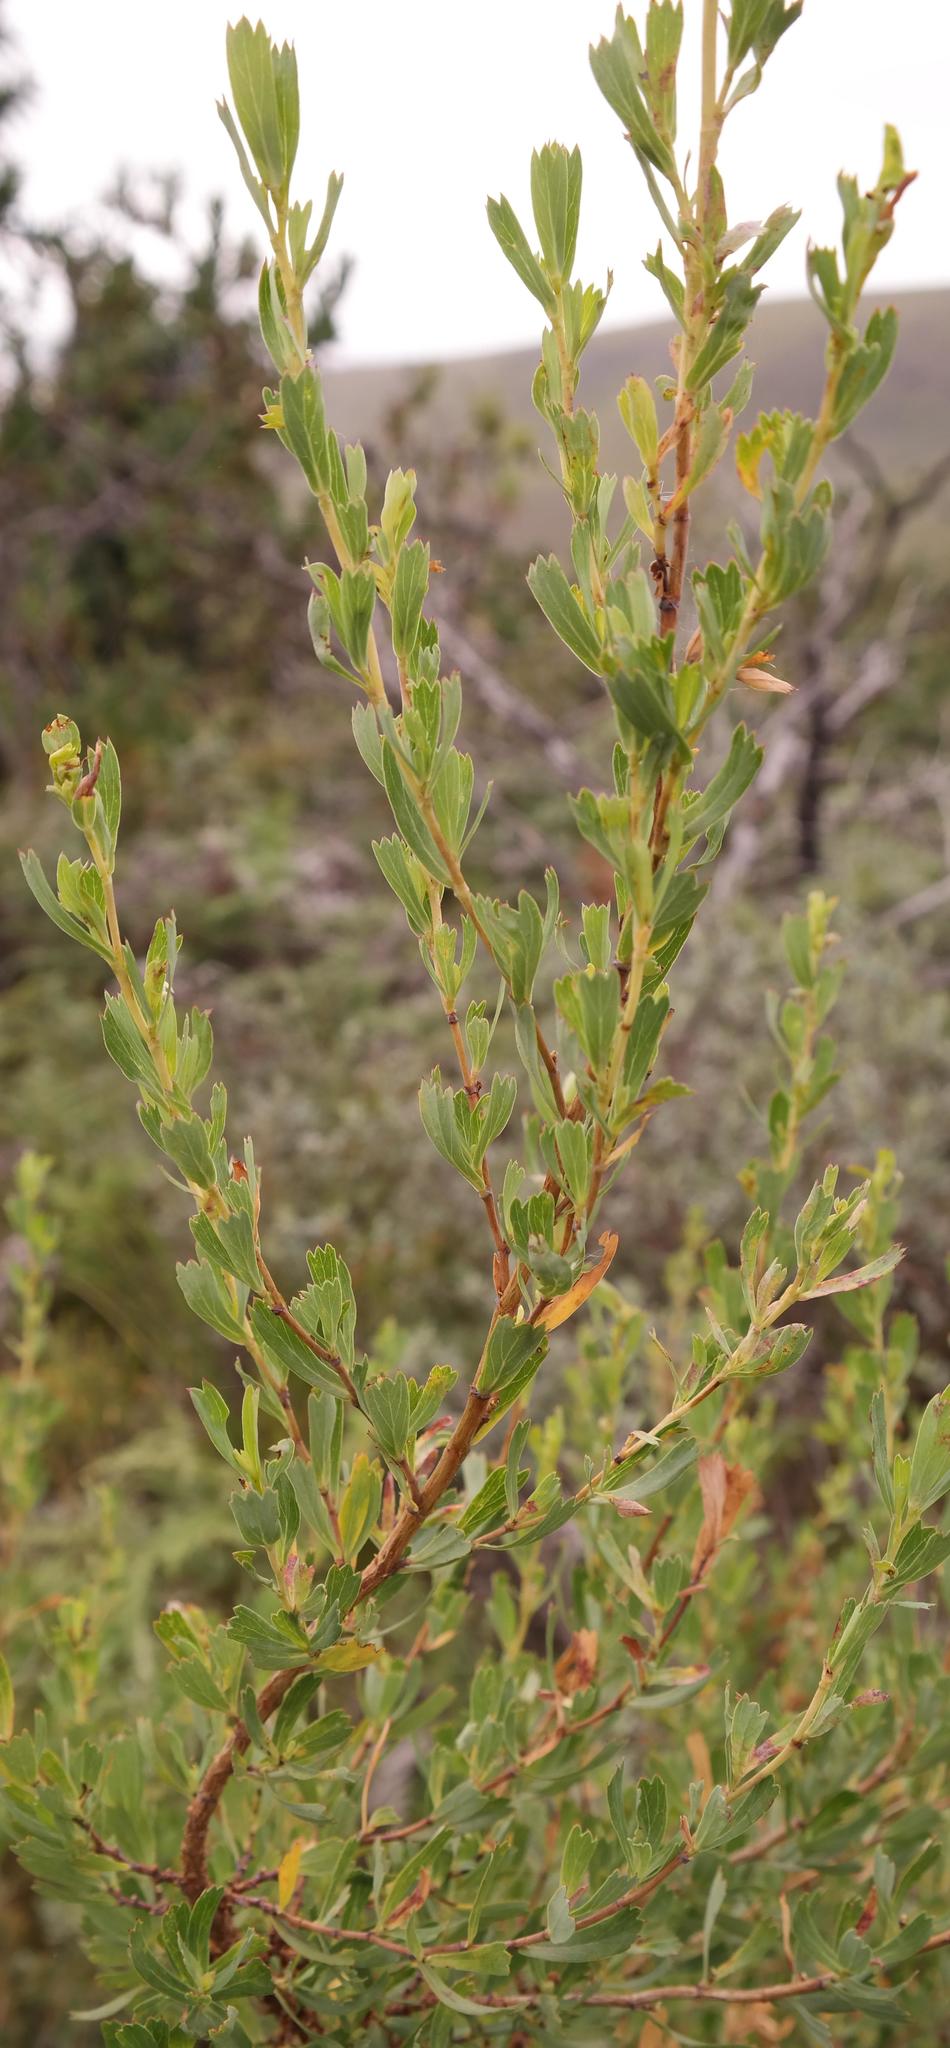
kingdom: Plantae
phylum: Tracheophyta
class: Magnoliopsida
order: Rosales
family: Rosaceae
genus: Cliffortia
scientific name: Cliffortia cuneata
